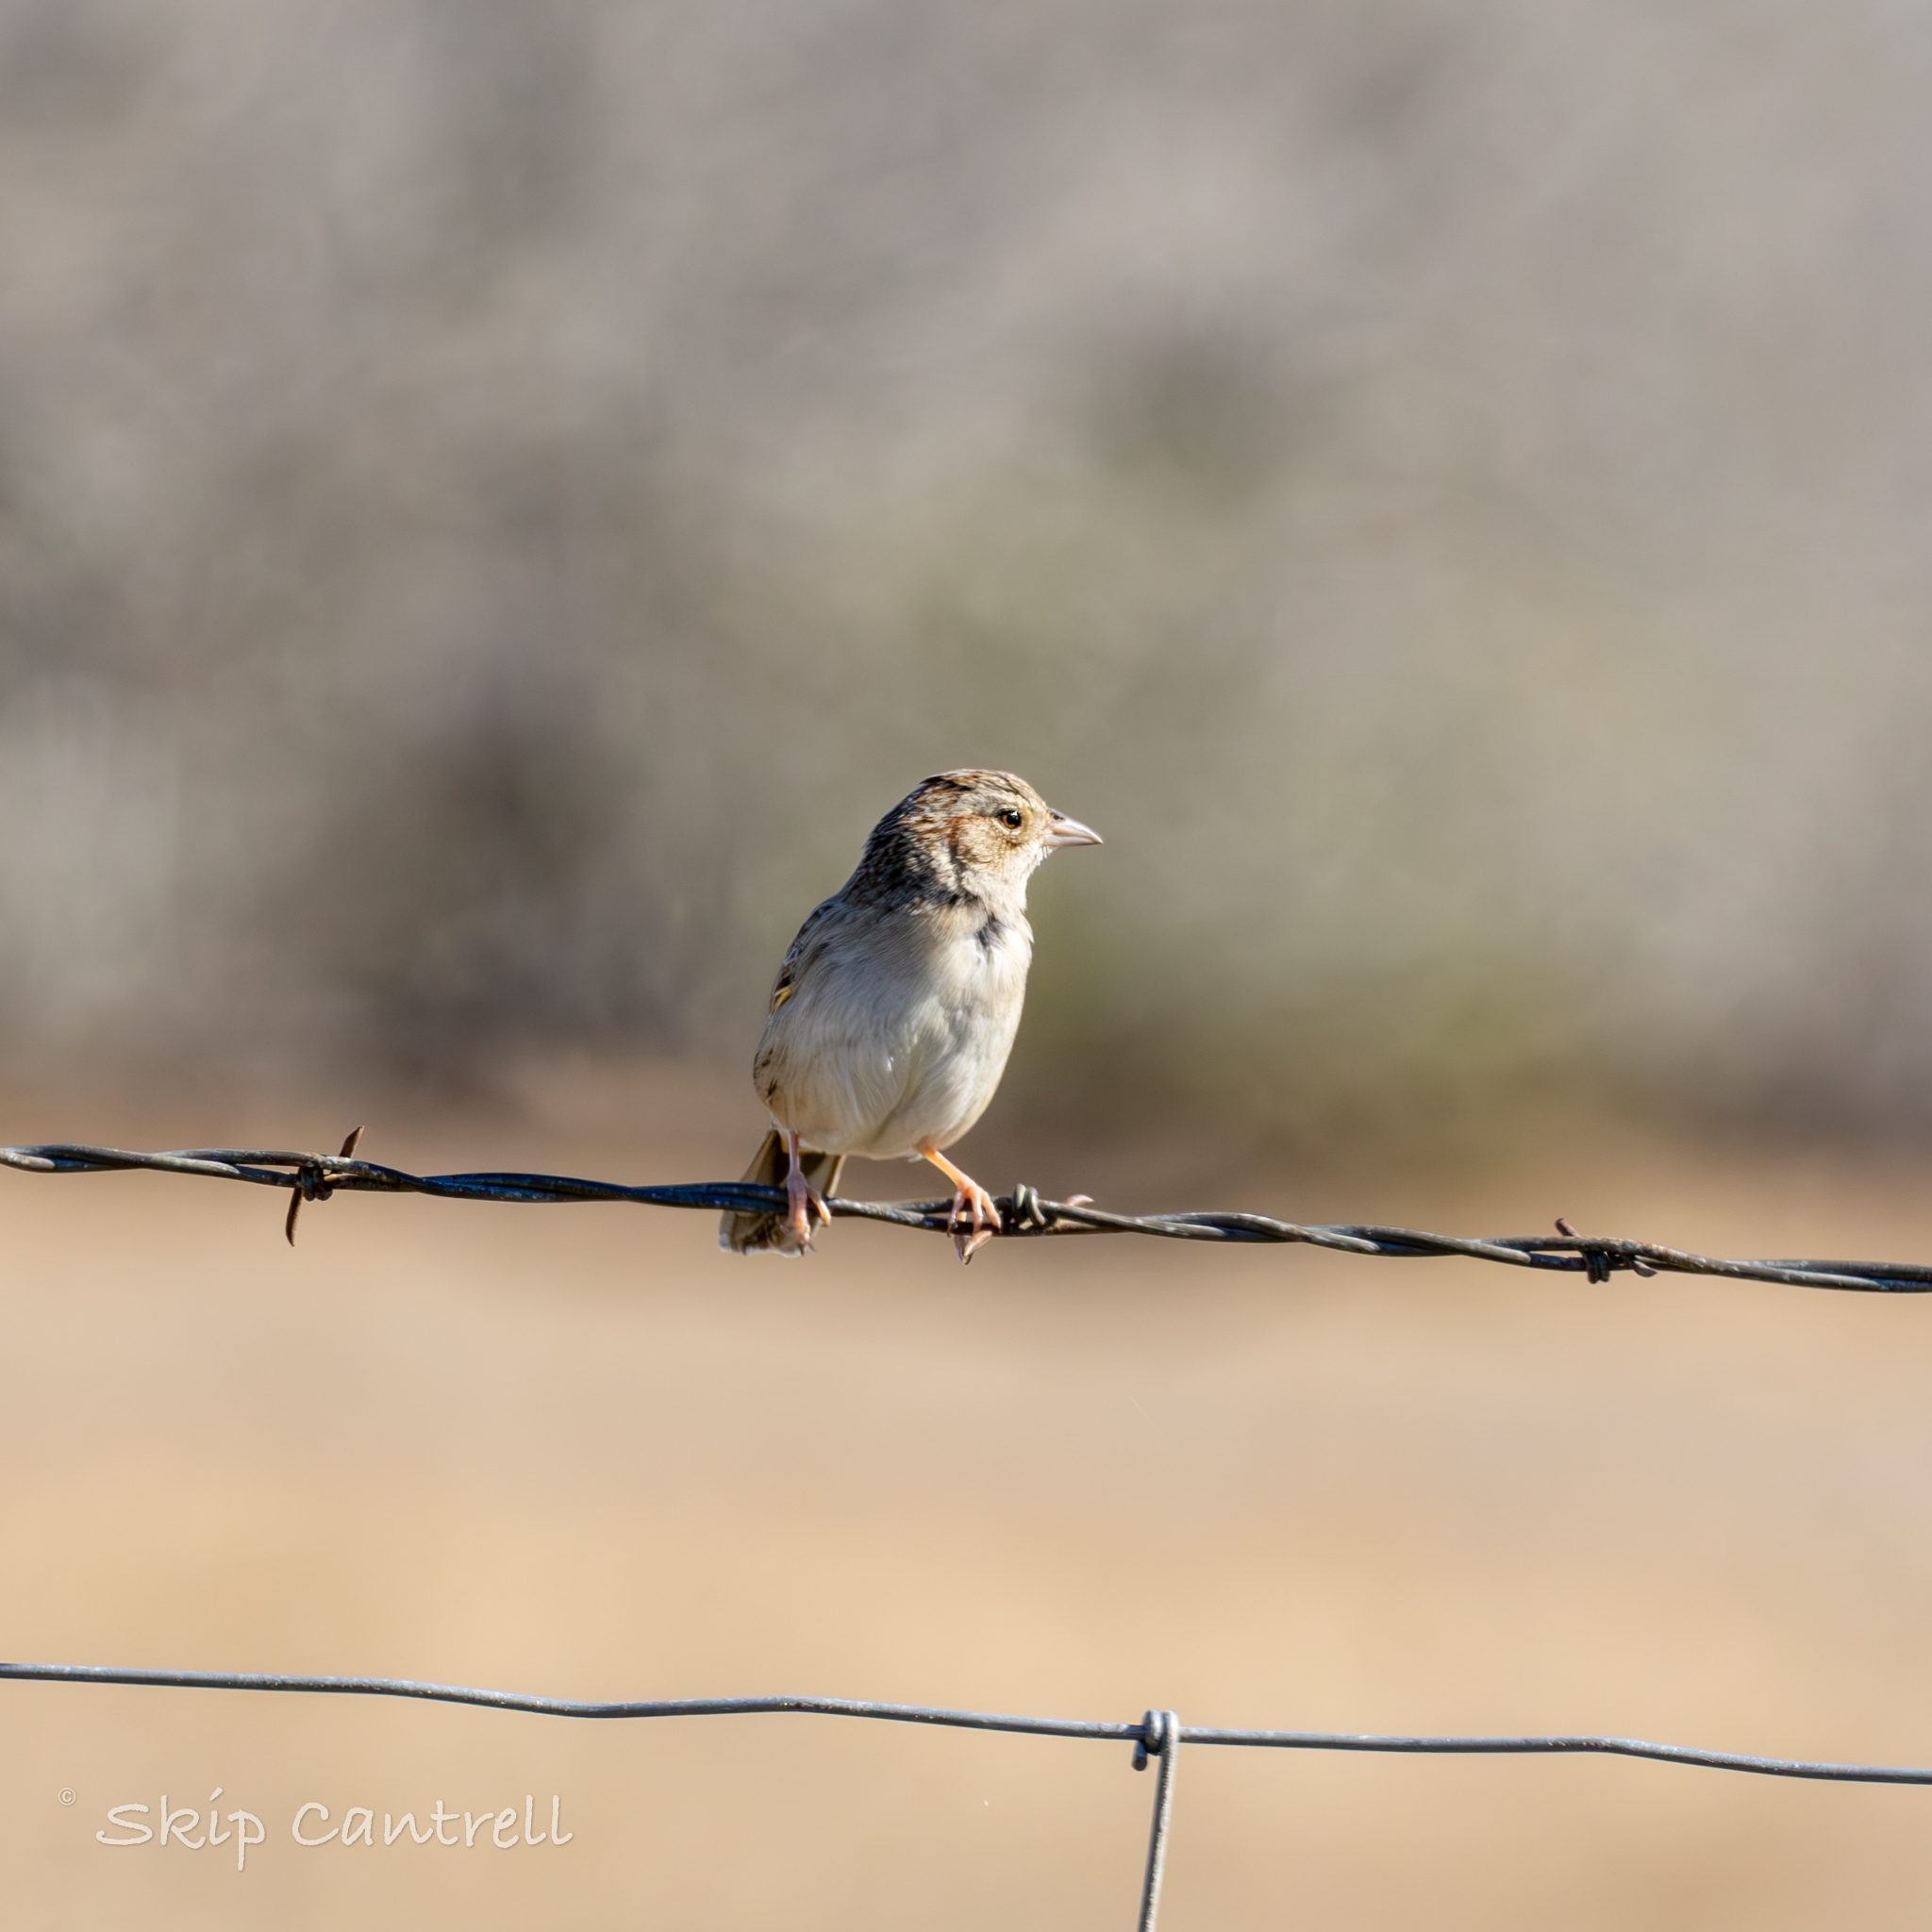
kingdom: Animalia
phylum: Chordata
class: Aves
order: Passeriformes
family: Passerellidae
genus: Ammodramus
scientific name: Ammodramus savannarum
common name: Grasshopper sparrow
